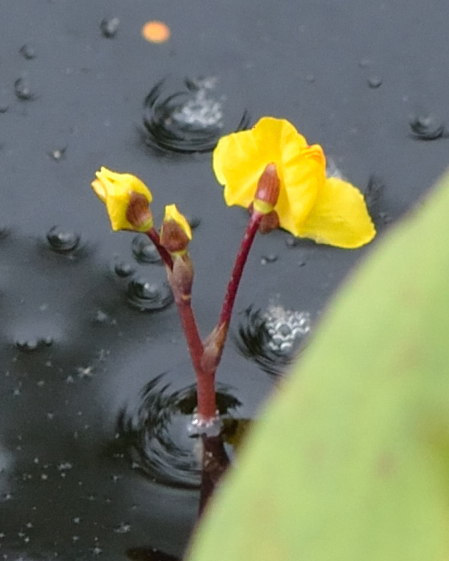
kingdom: Plantae
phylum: Tracheophyta
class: Magnoliopsida
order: Lamiales
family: Lentibulariaceae
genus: Utricularia
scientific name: Utricularia australis
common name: Bladderwort
